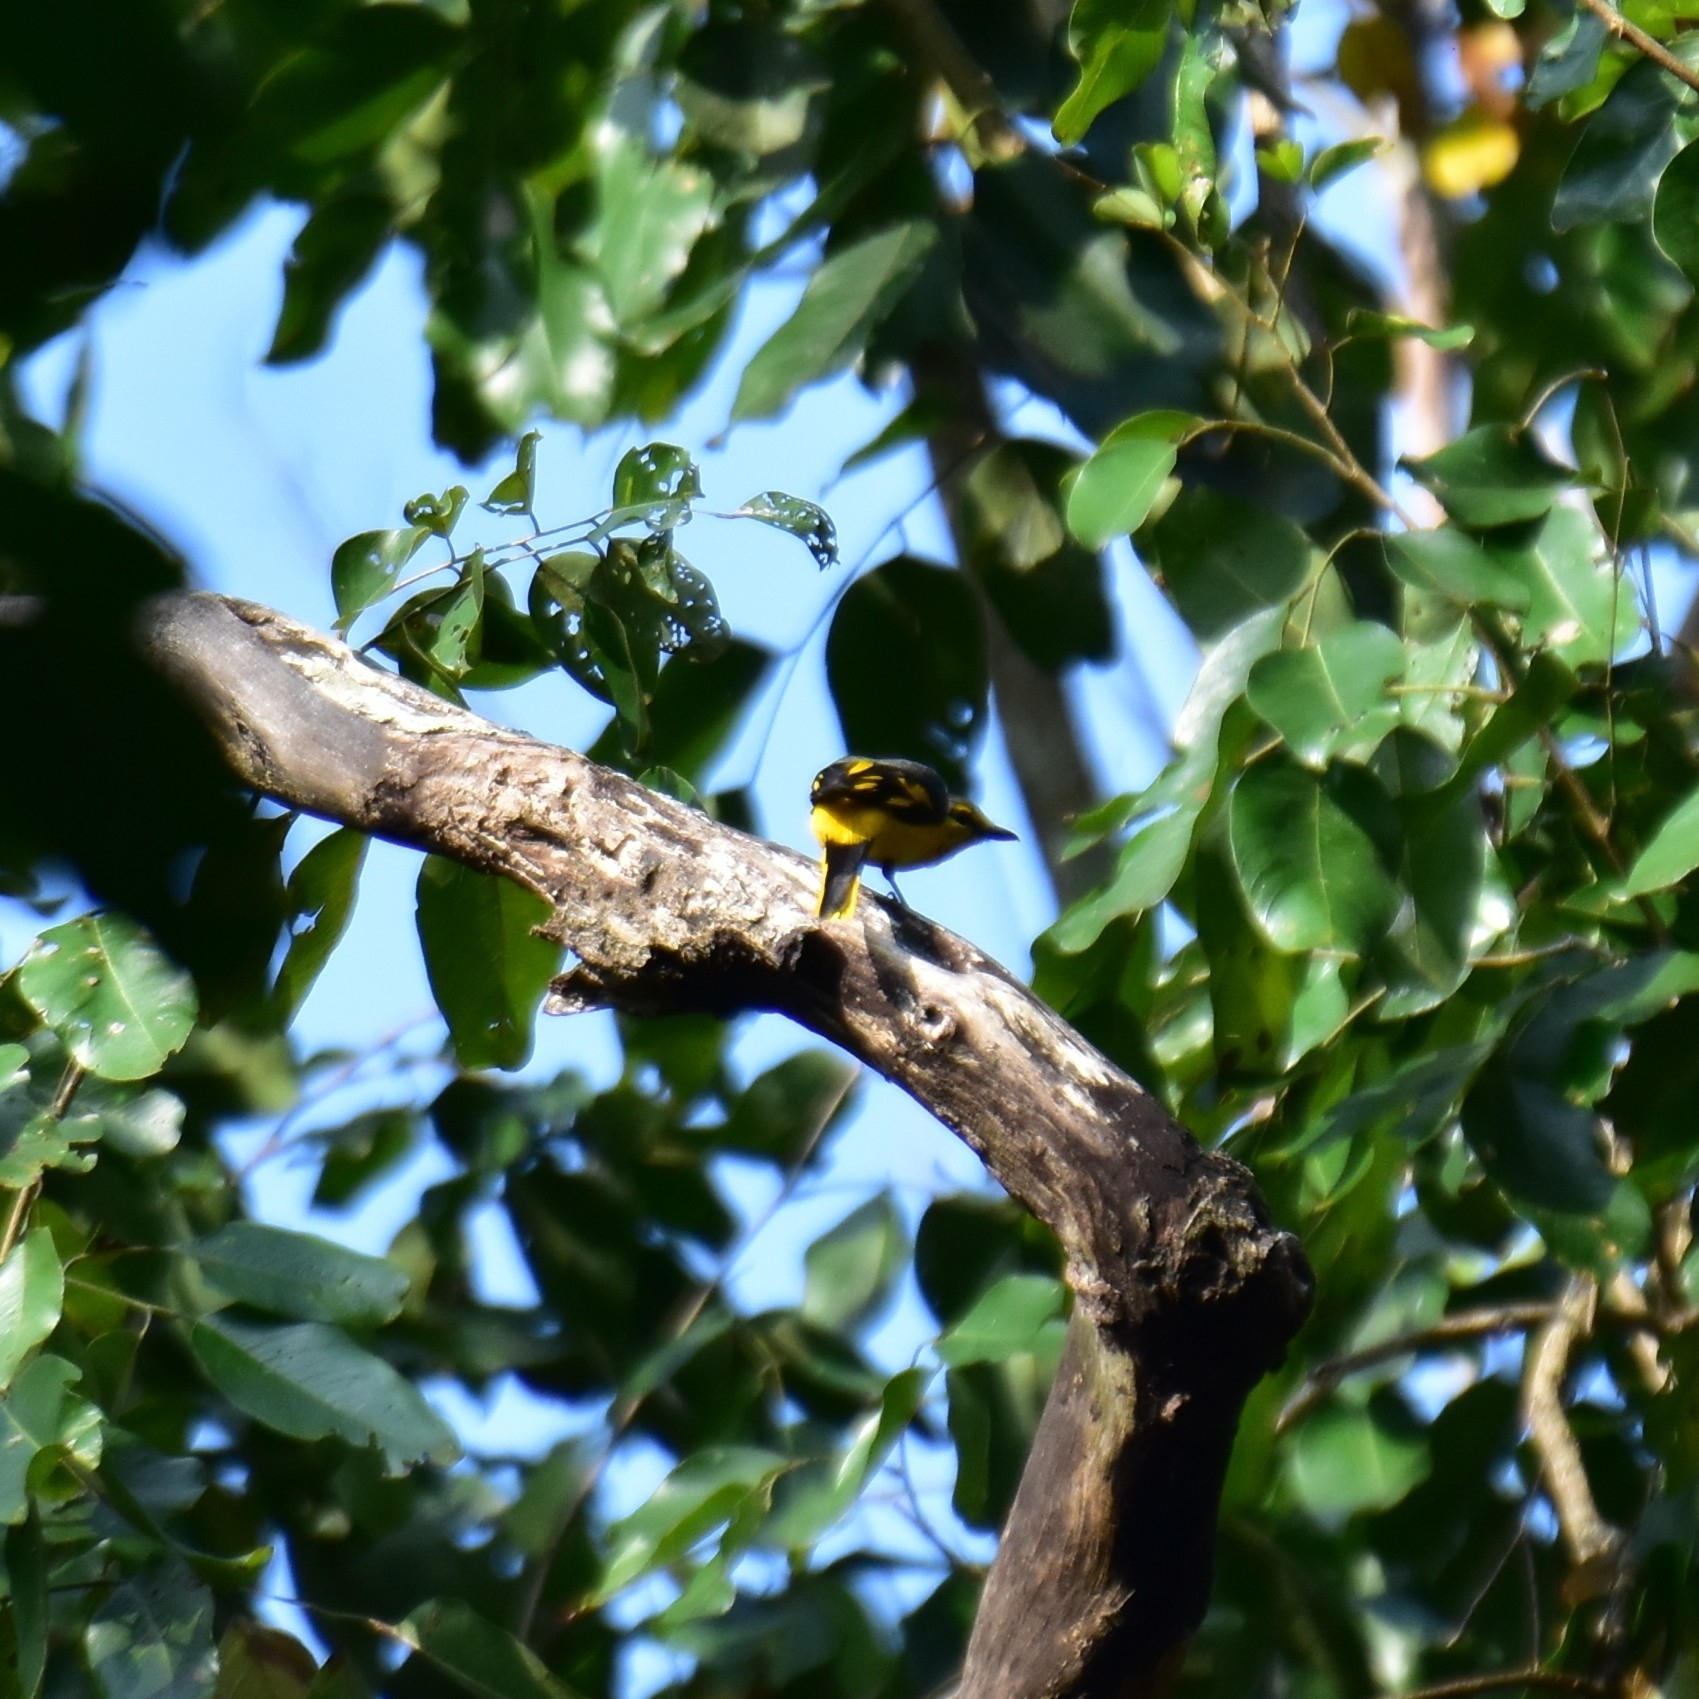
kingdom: Animalia
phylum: Chordata
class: Aves
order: Passeriformes
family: Campephagidae
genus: Pericrocotus
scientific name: Pericrocotus flammeus
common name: Orange minivet
